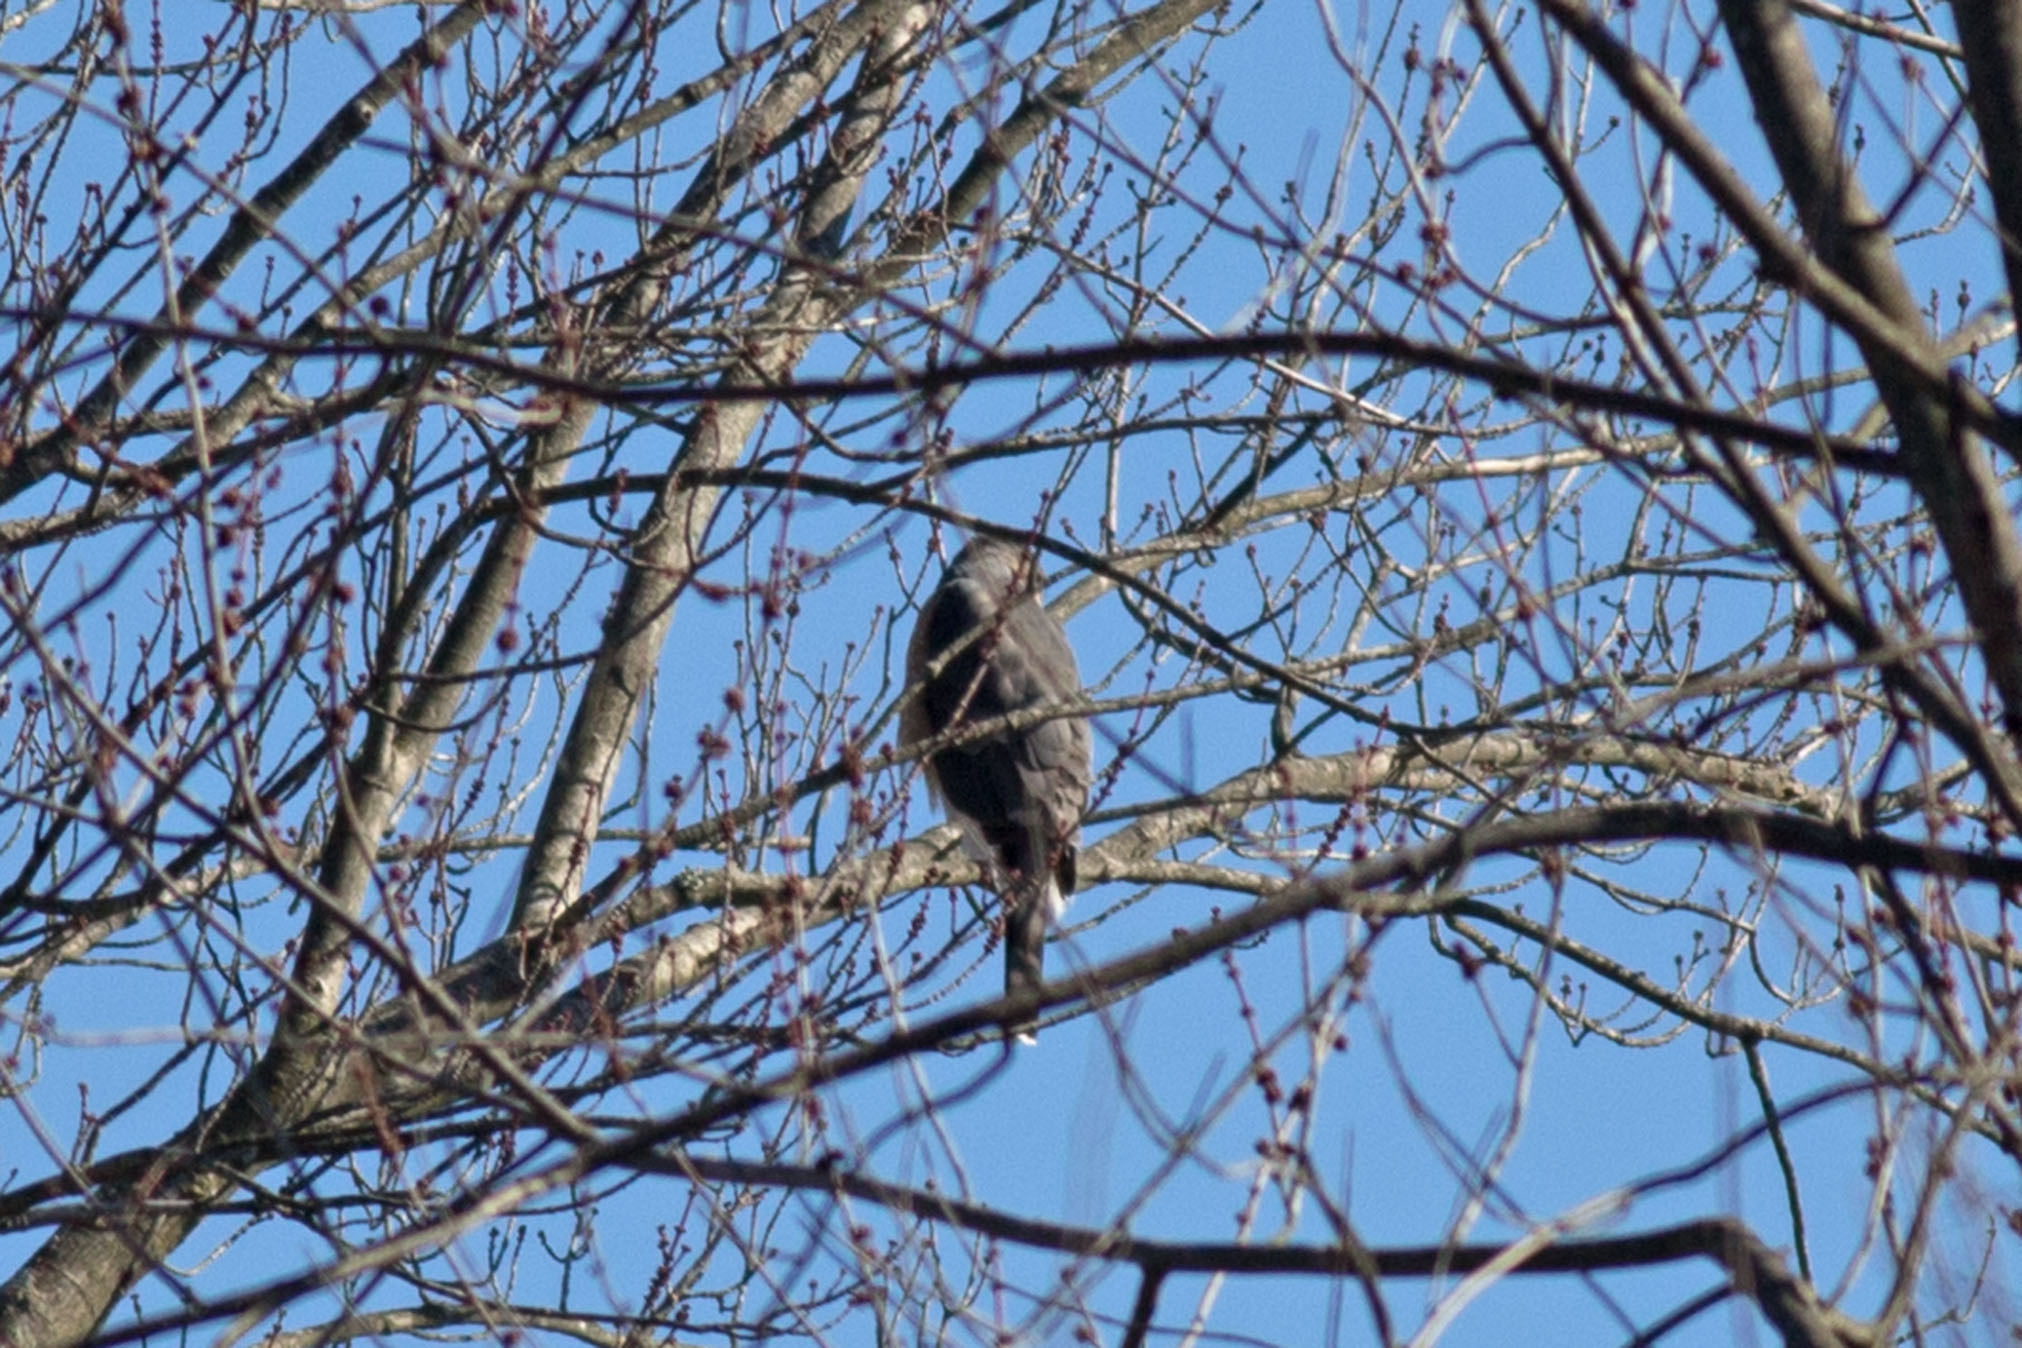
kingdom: Animalia
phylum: Chordata
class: Aves
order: Accipitriformes
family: Accipitridae
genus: Accipiter
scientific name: Accipiter cooperii
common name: Cooper's hawk
